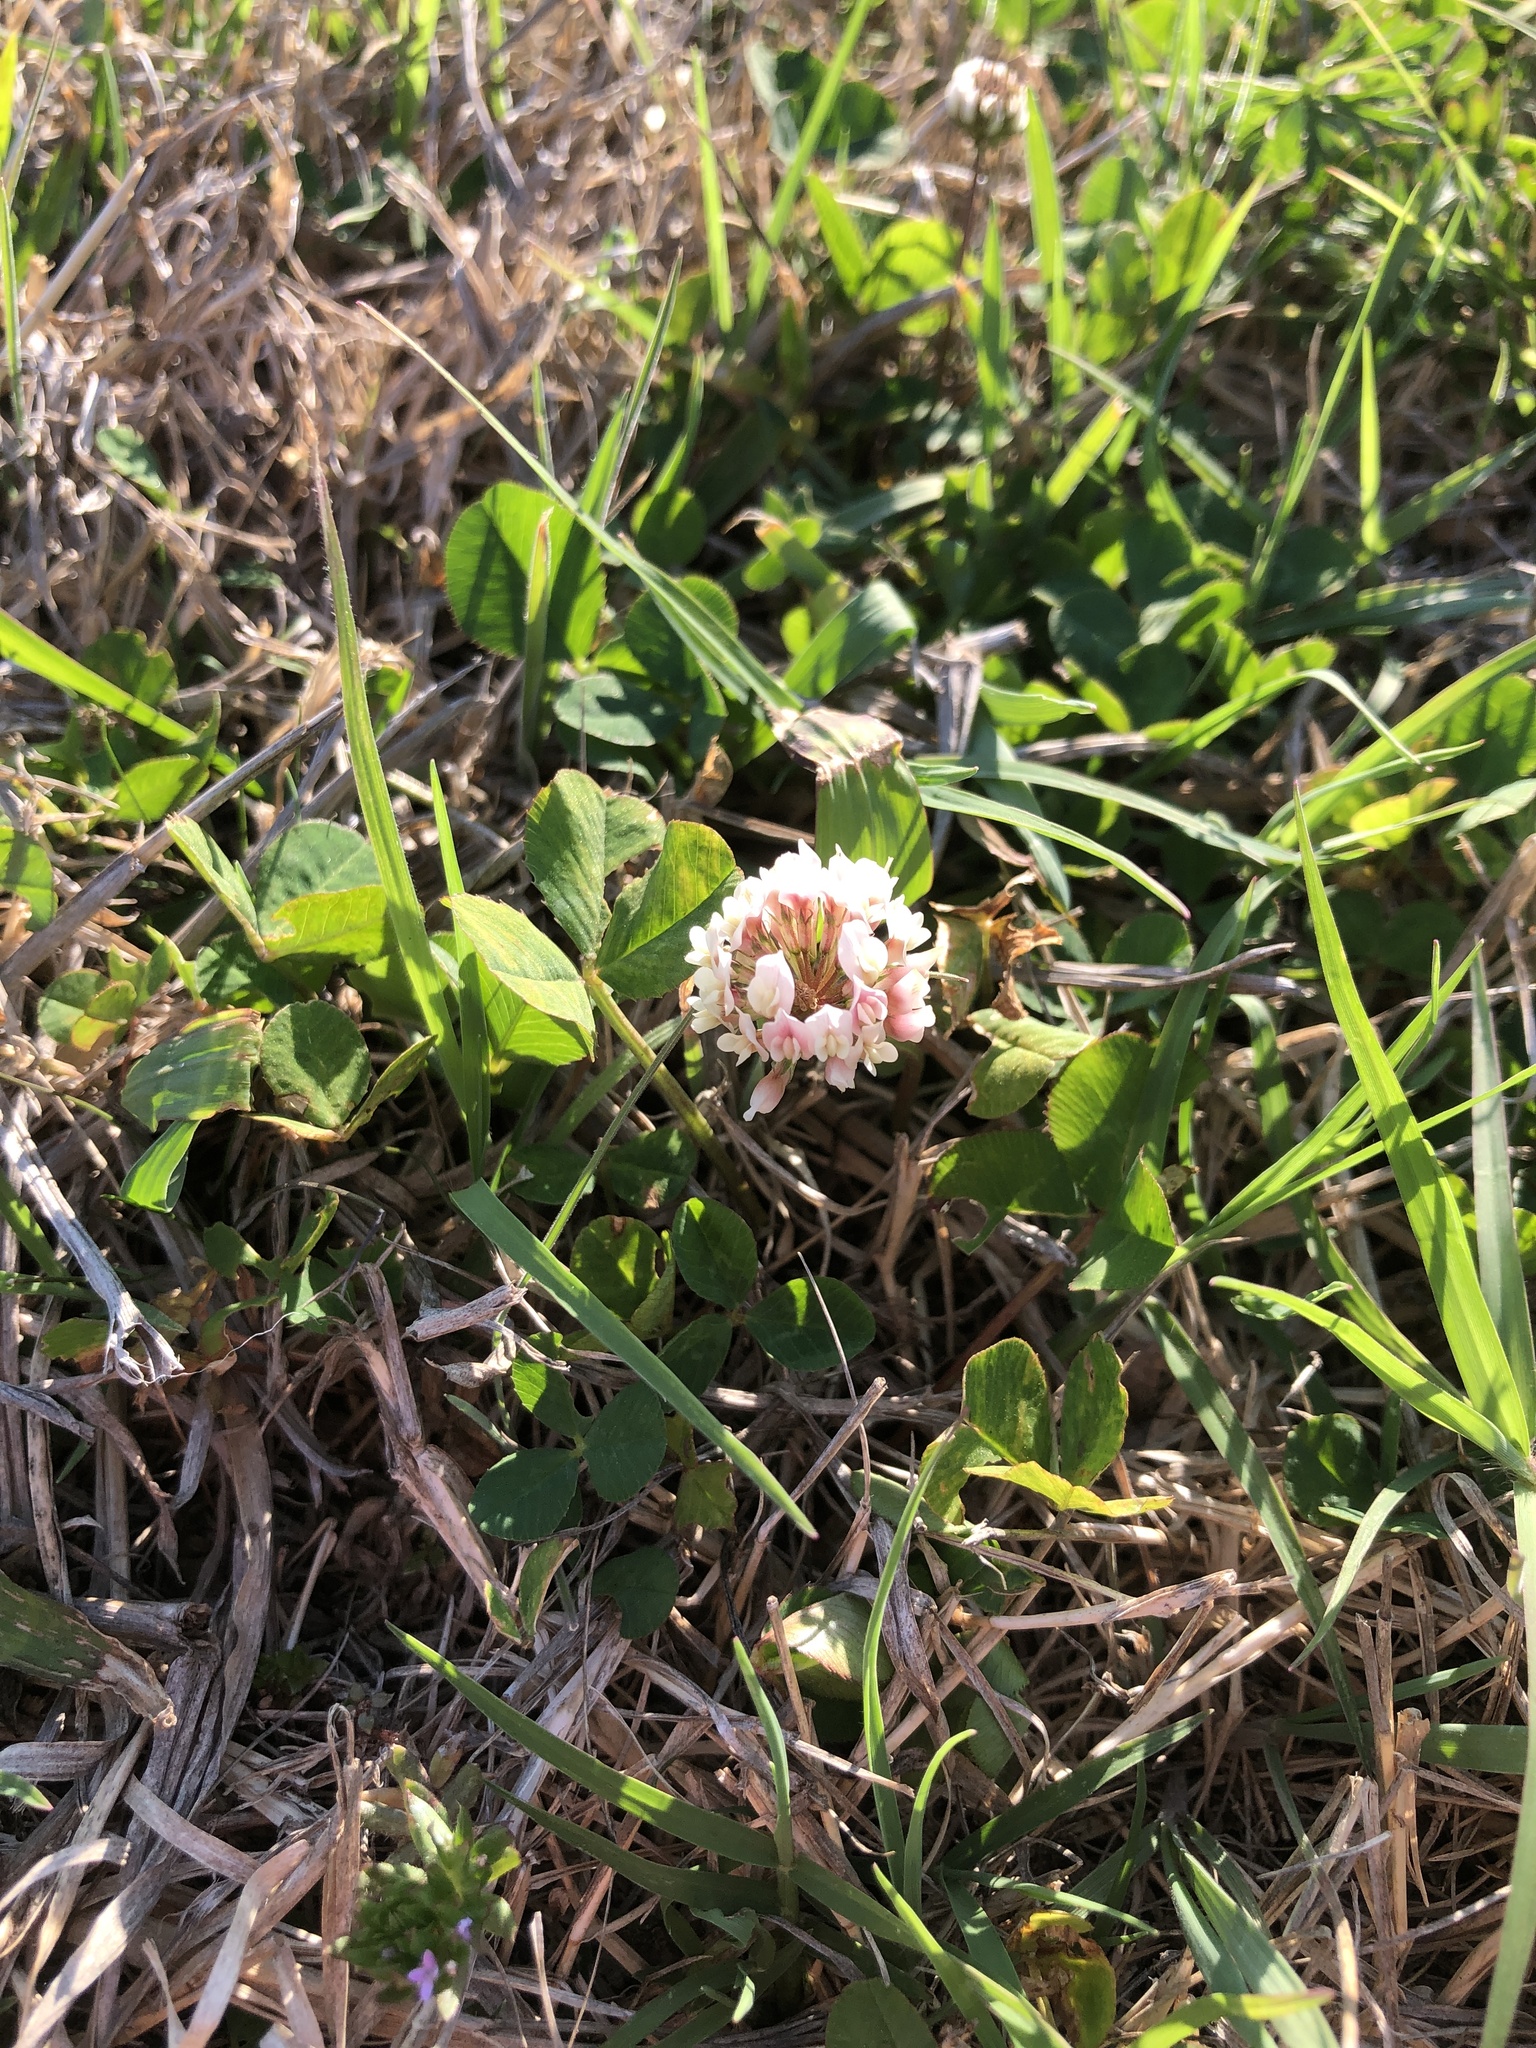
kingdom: Plantae
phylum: Tracheophyta
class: Magnoliopsida
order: Fabales
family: Fabaceae
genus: Trifolium
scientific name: Trifolium repens
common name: White clover
